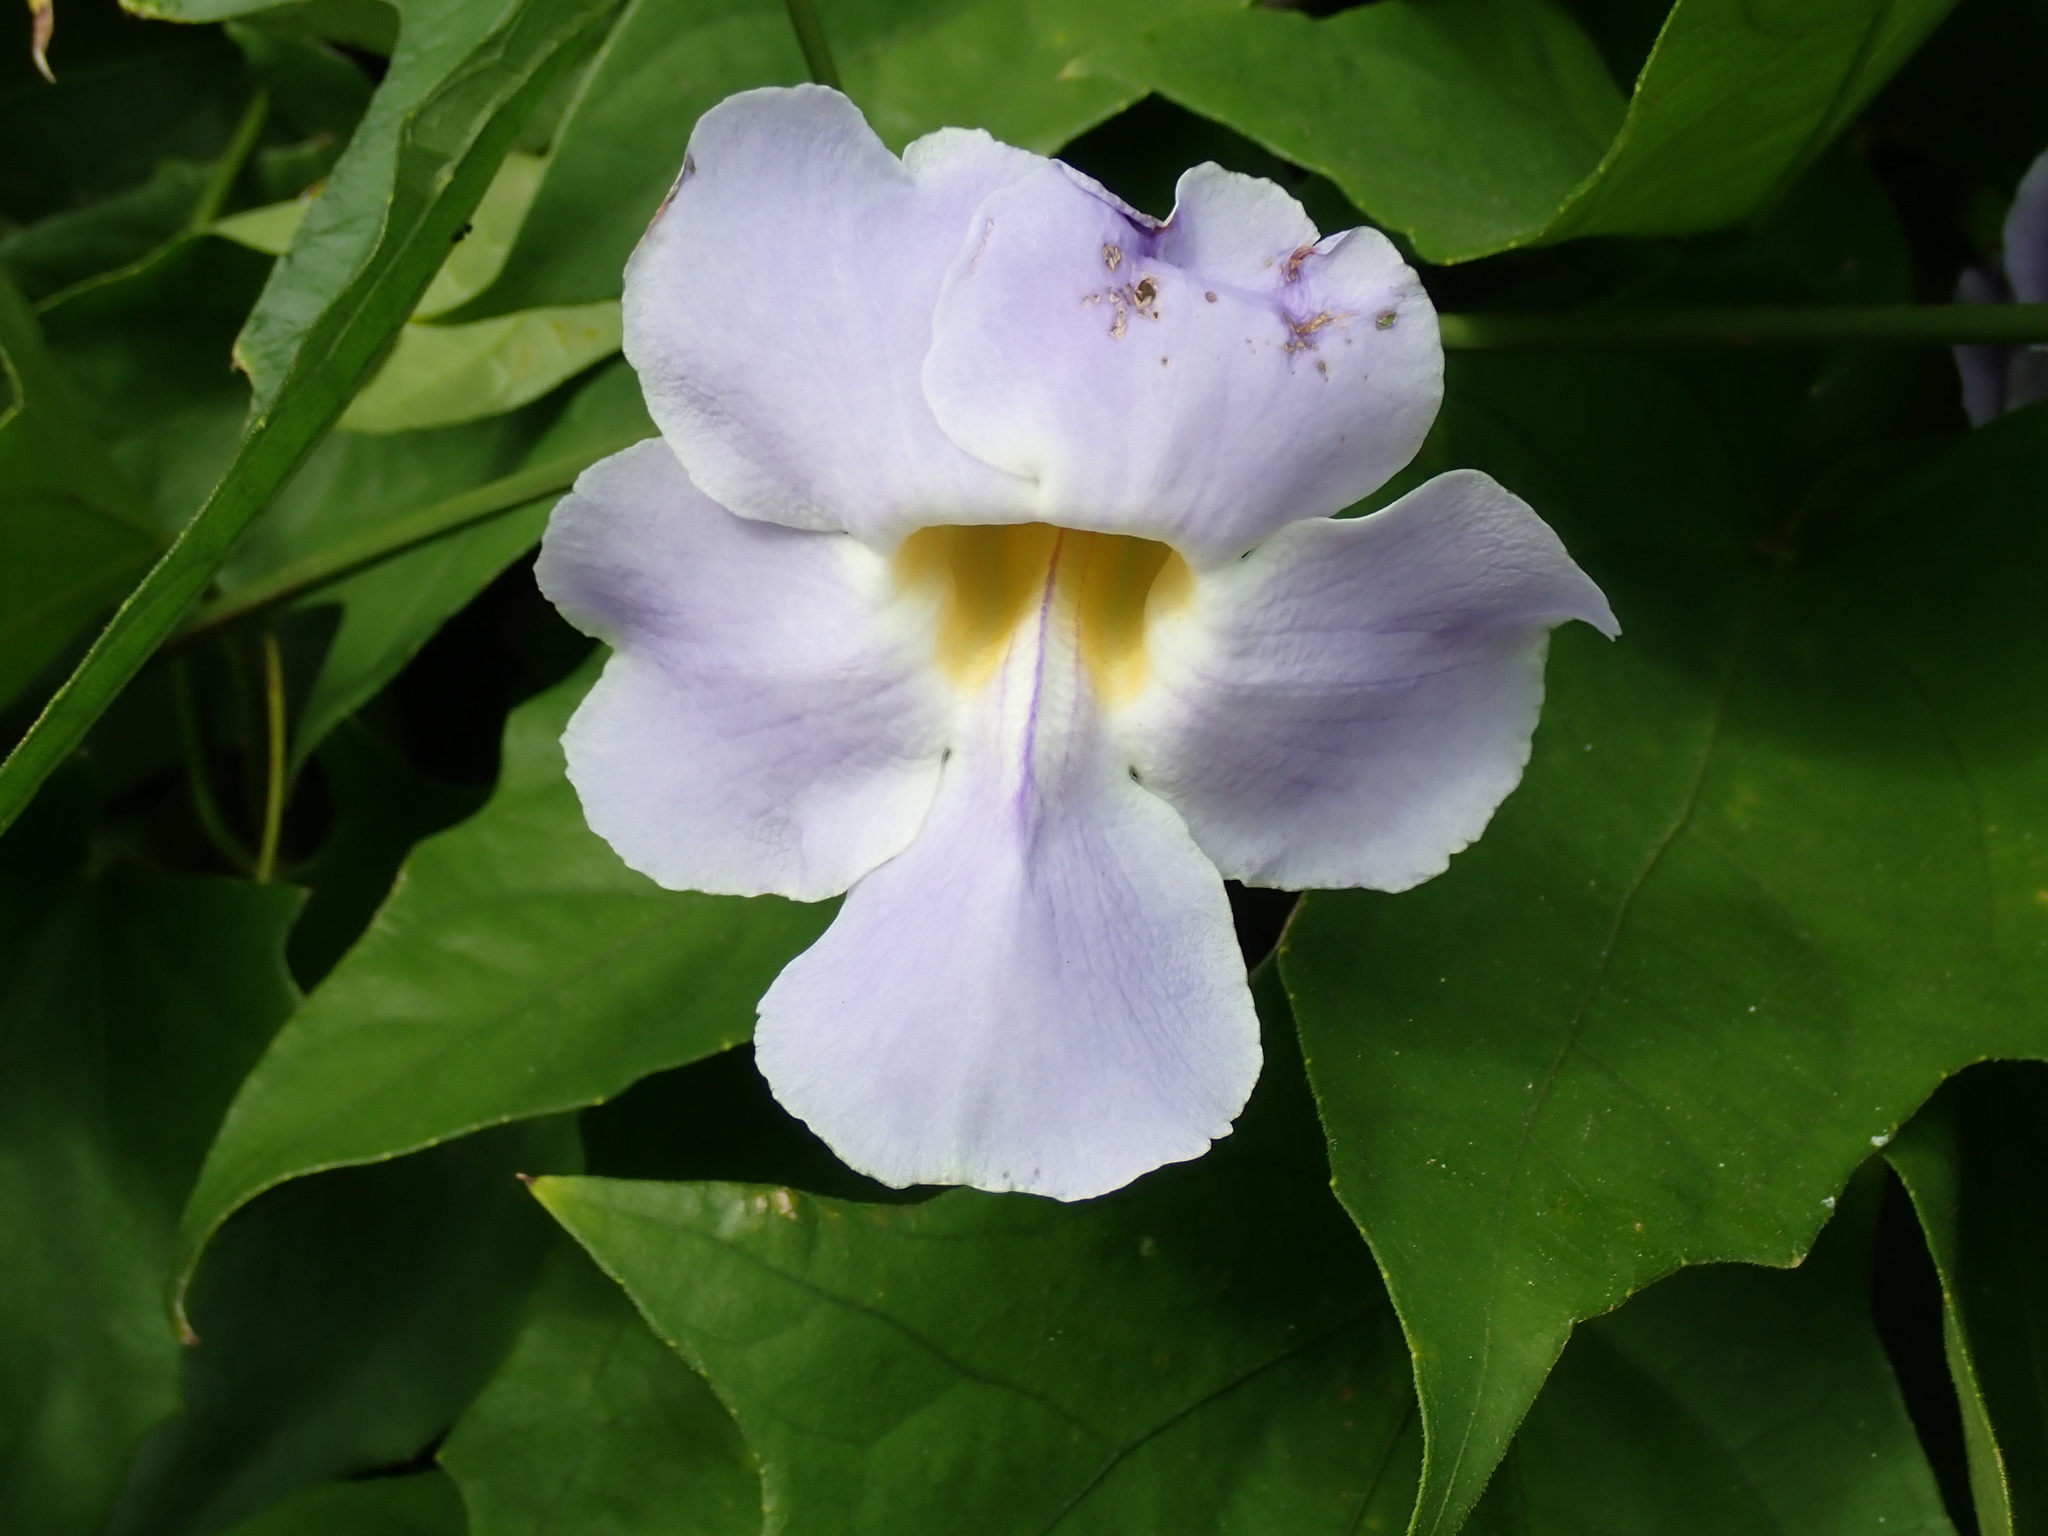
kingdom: Plantae
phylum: Tracheophyta
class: Magnoliopsida
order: Lamiales
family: Acanthaceae
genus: Thunbergia
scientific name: Thunbergia grandiflora
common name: Bengal trumpet
